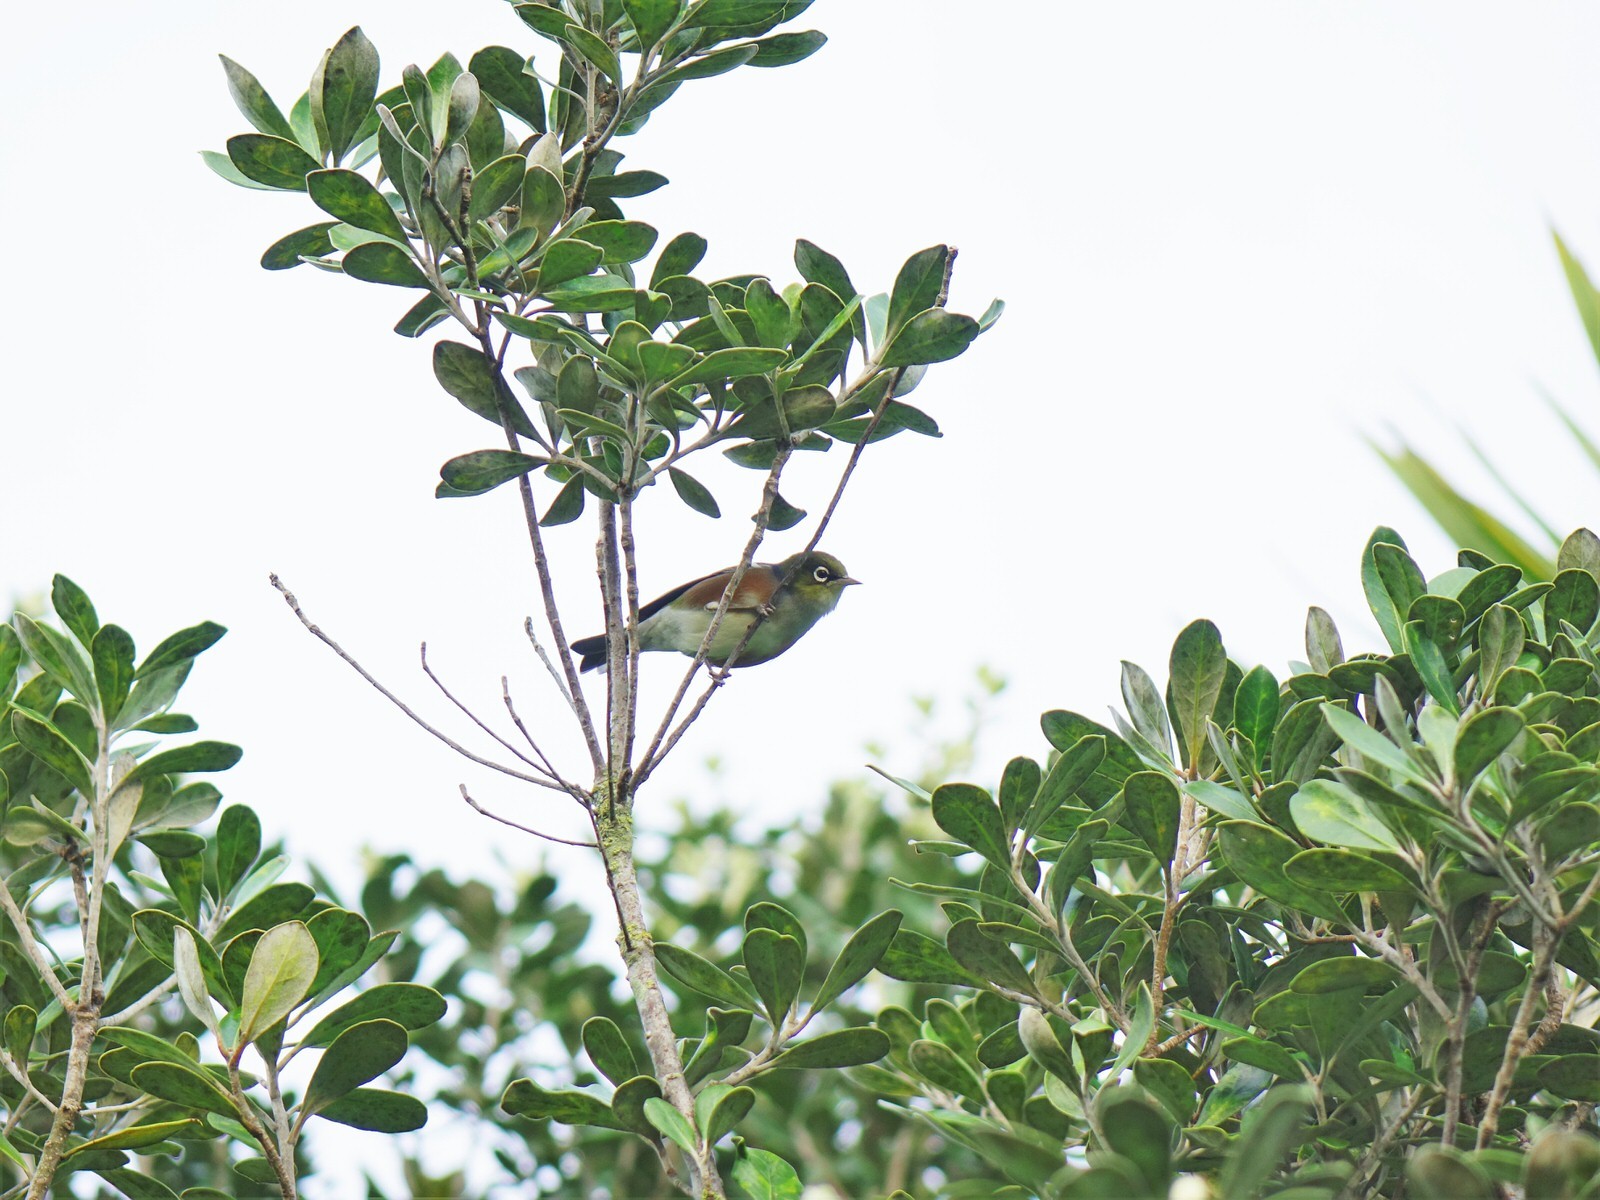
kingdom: Animalia
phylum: Chordata
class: Aves
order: Passeriformes
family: Zosteropidae
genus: Zosterops
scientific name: Zosterops lateralis
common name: Silvereye
